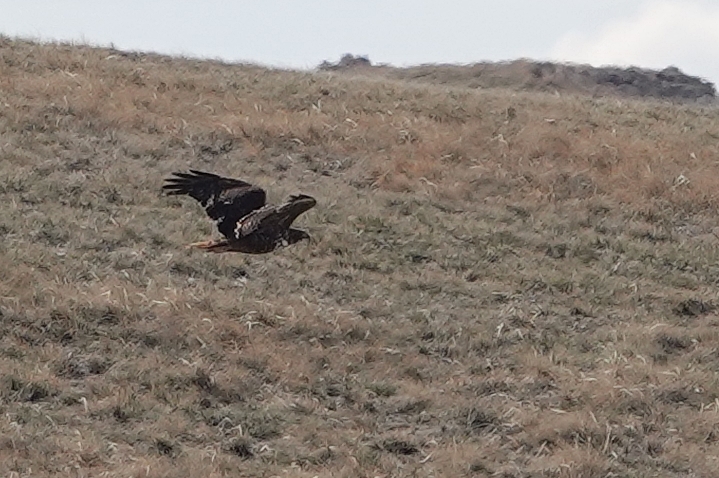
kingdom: Animalia
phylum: Chordata
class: Aves
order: Accipitriformes
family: Accipitridae
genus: Buteo
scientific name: Buteo jamaicensis
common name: Red-tailed hawk
